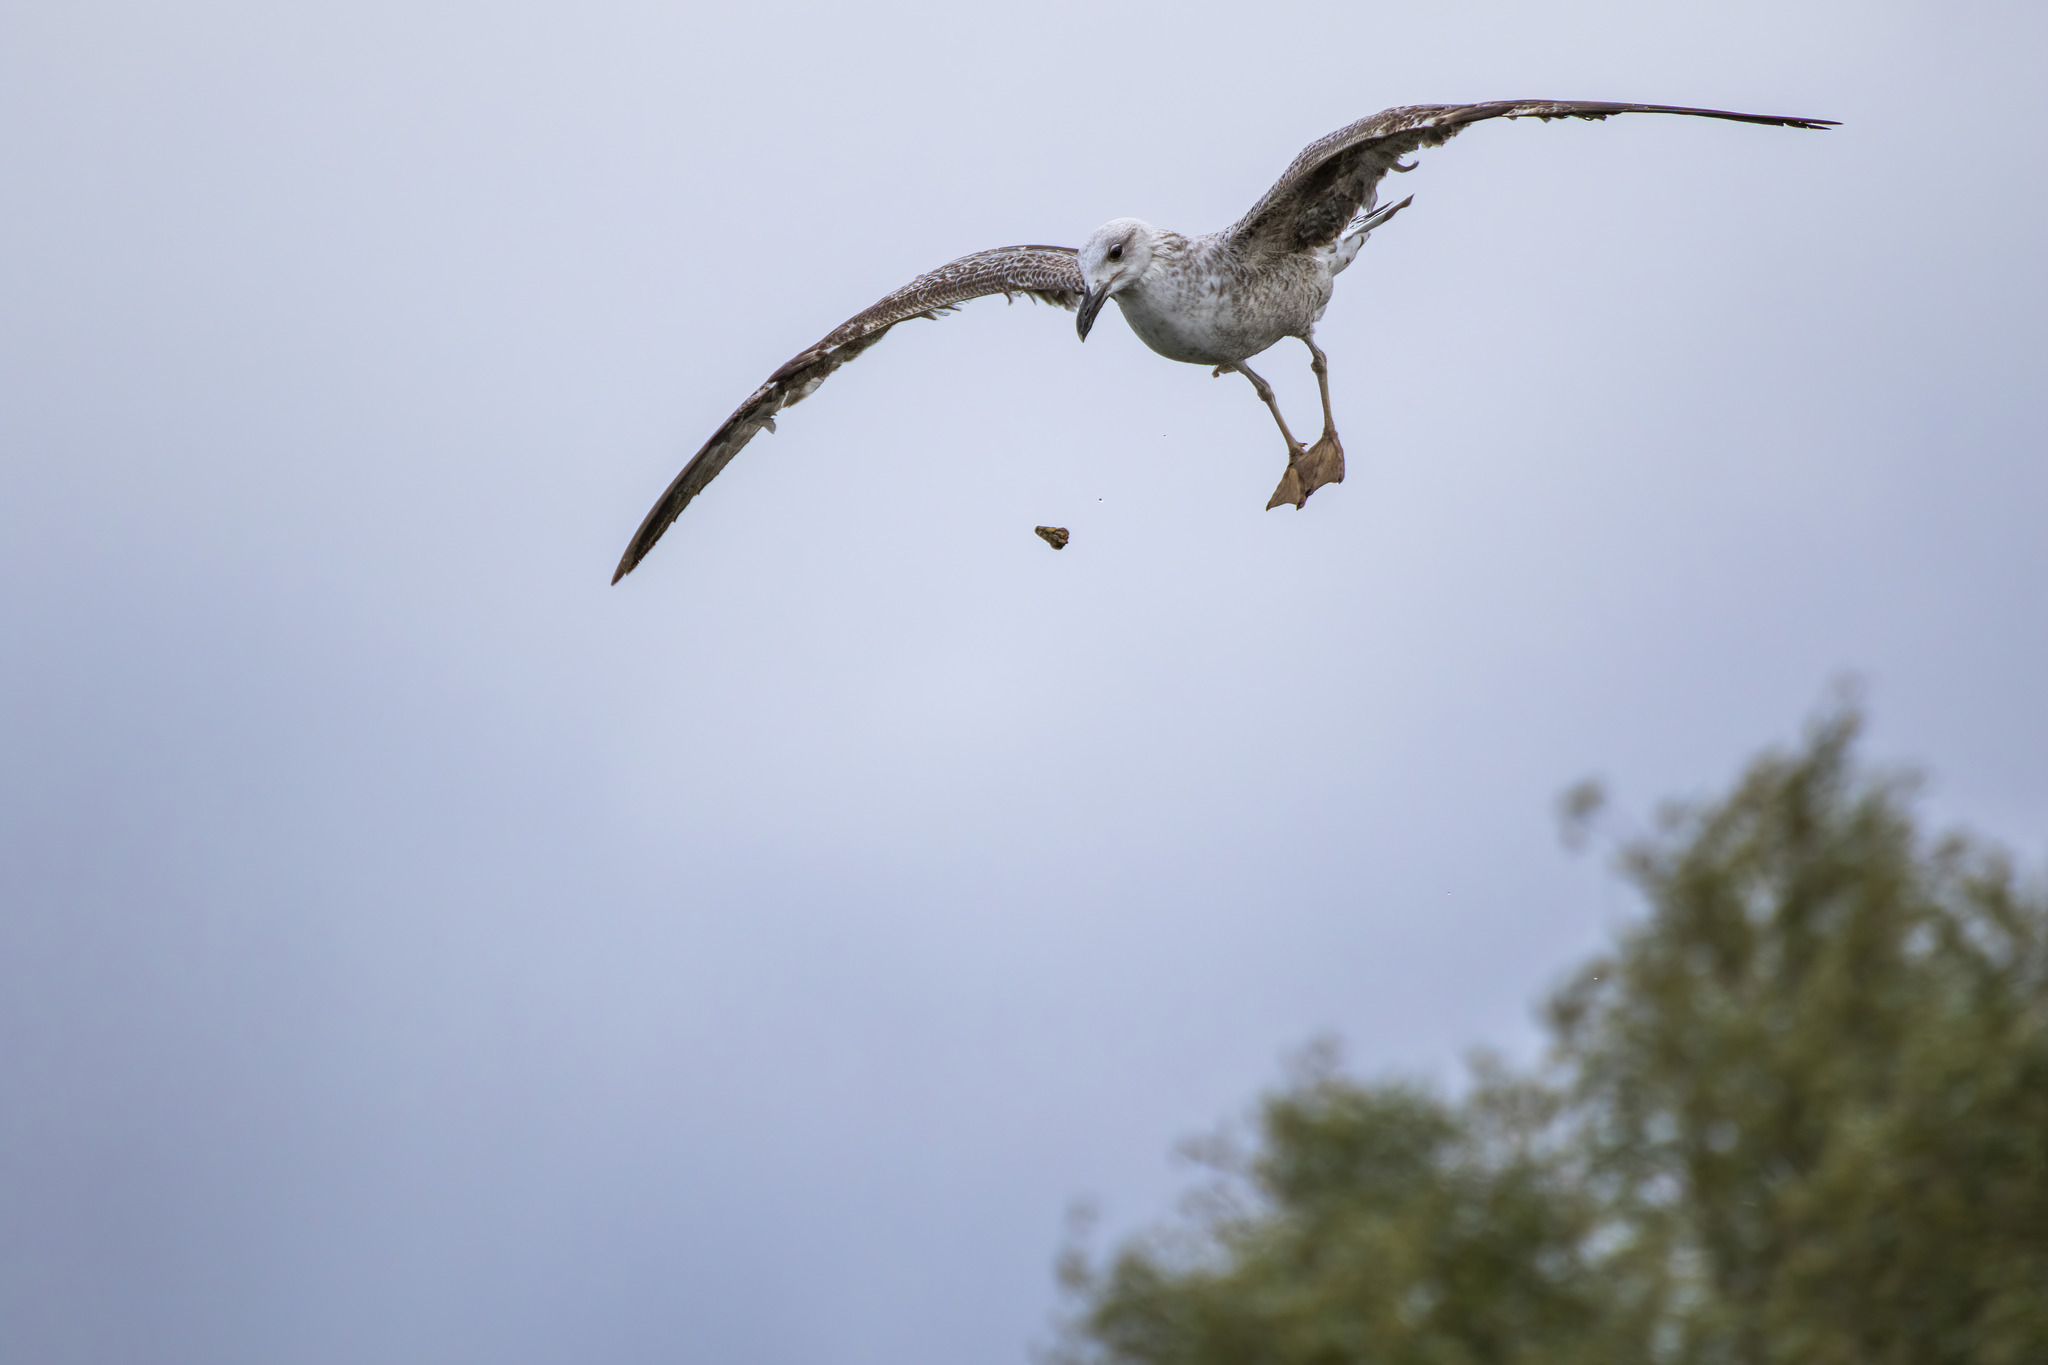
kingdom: Animalia
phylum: Chordata
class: Aves
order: Charadriiformes
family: Laridae
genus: Larus
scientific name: Larus michahellis
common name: Yellow-legged gull
